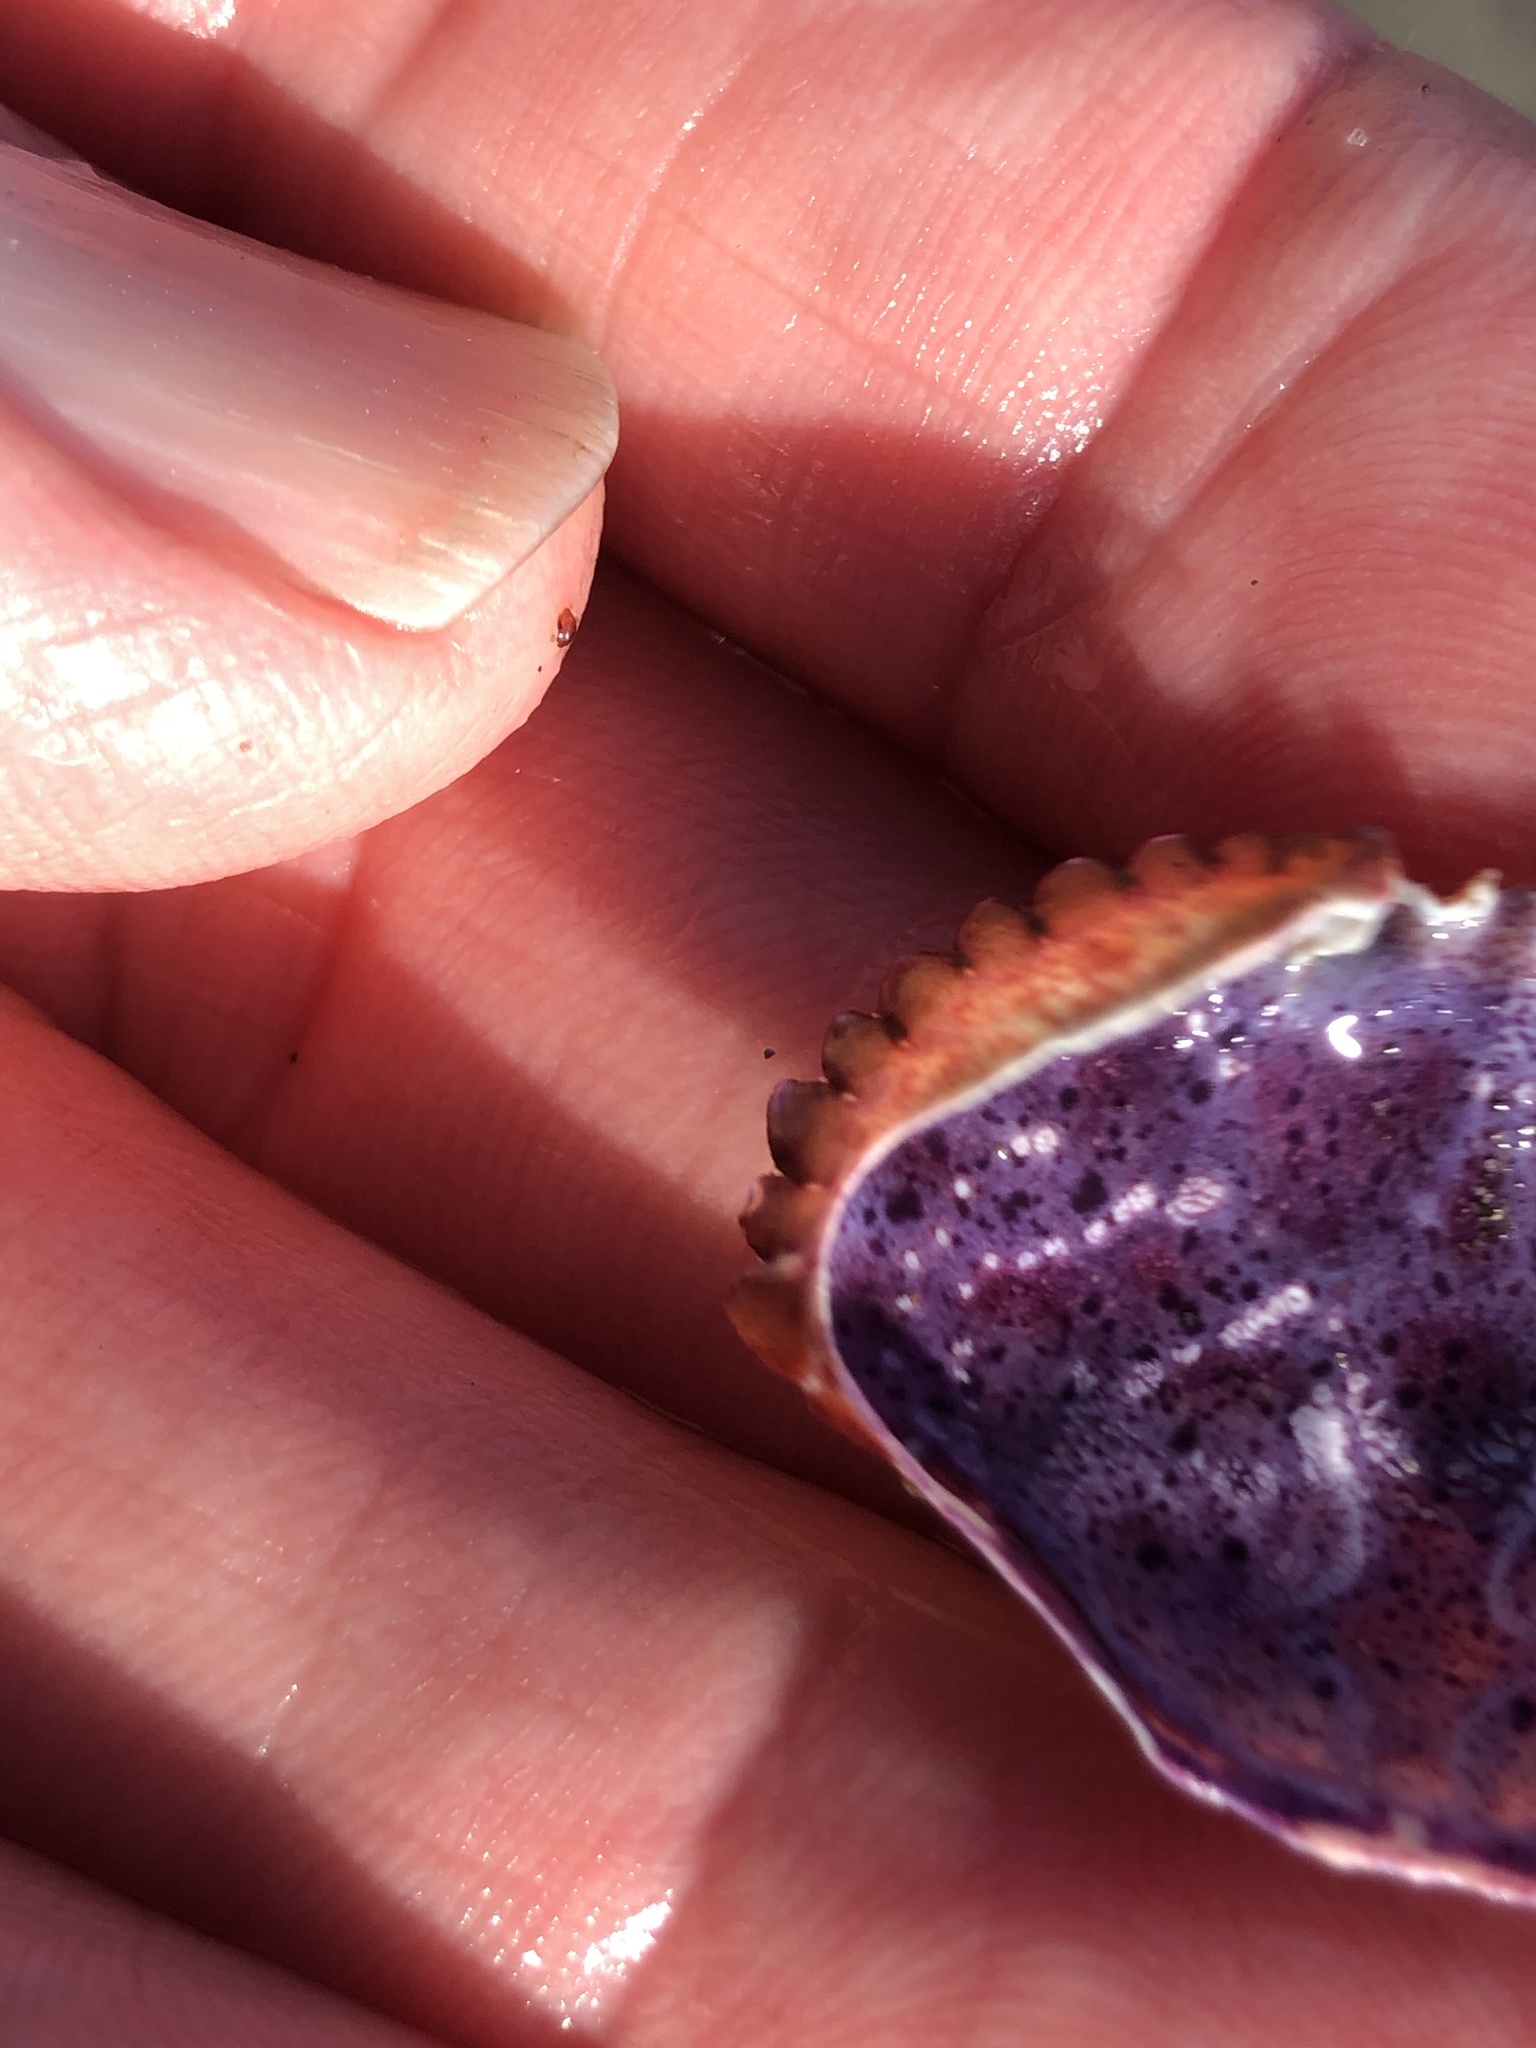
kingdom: Animalia
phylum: Arthropoda
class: Malacostraca
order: Decapoda
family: Cancridae
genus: Romaleon
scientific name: Romaleon antennarium
